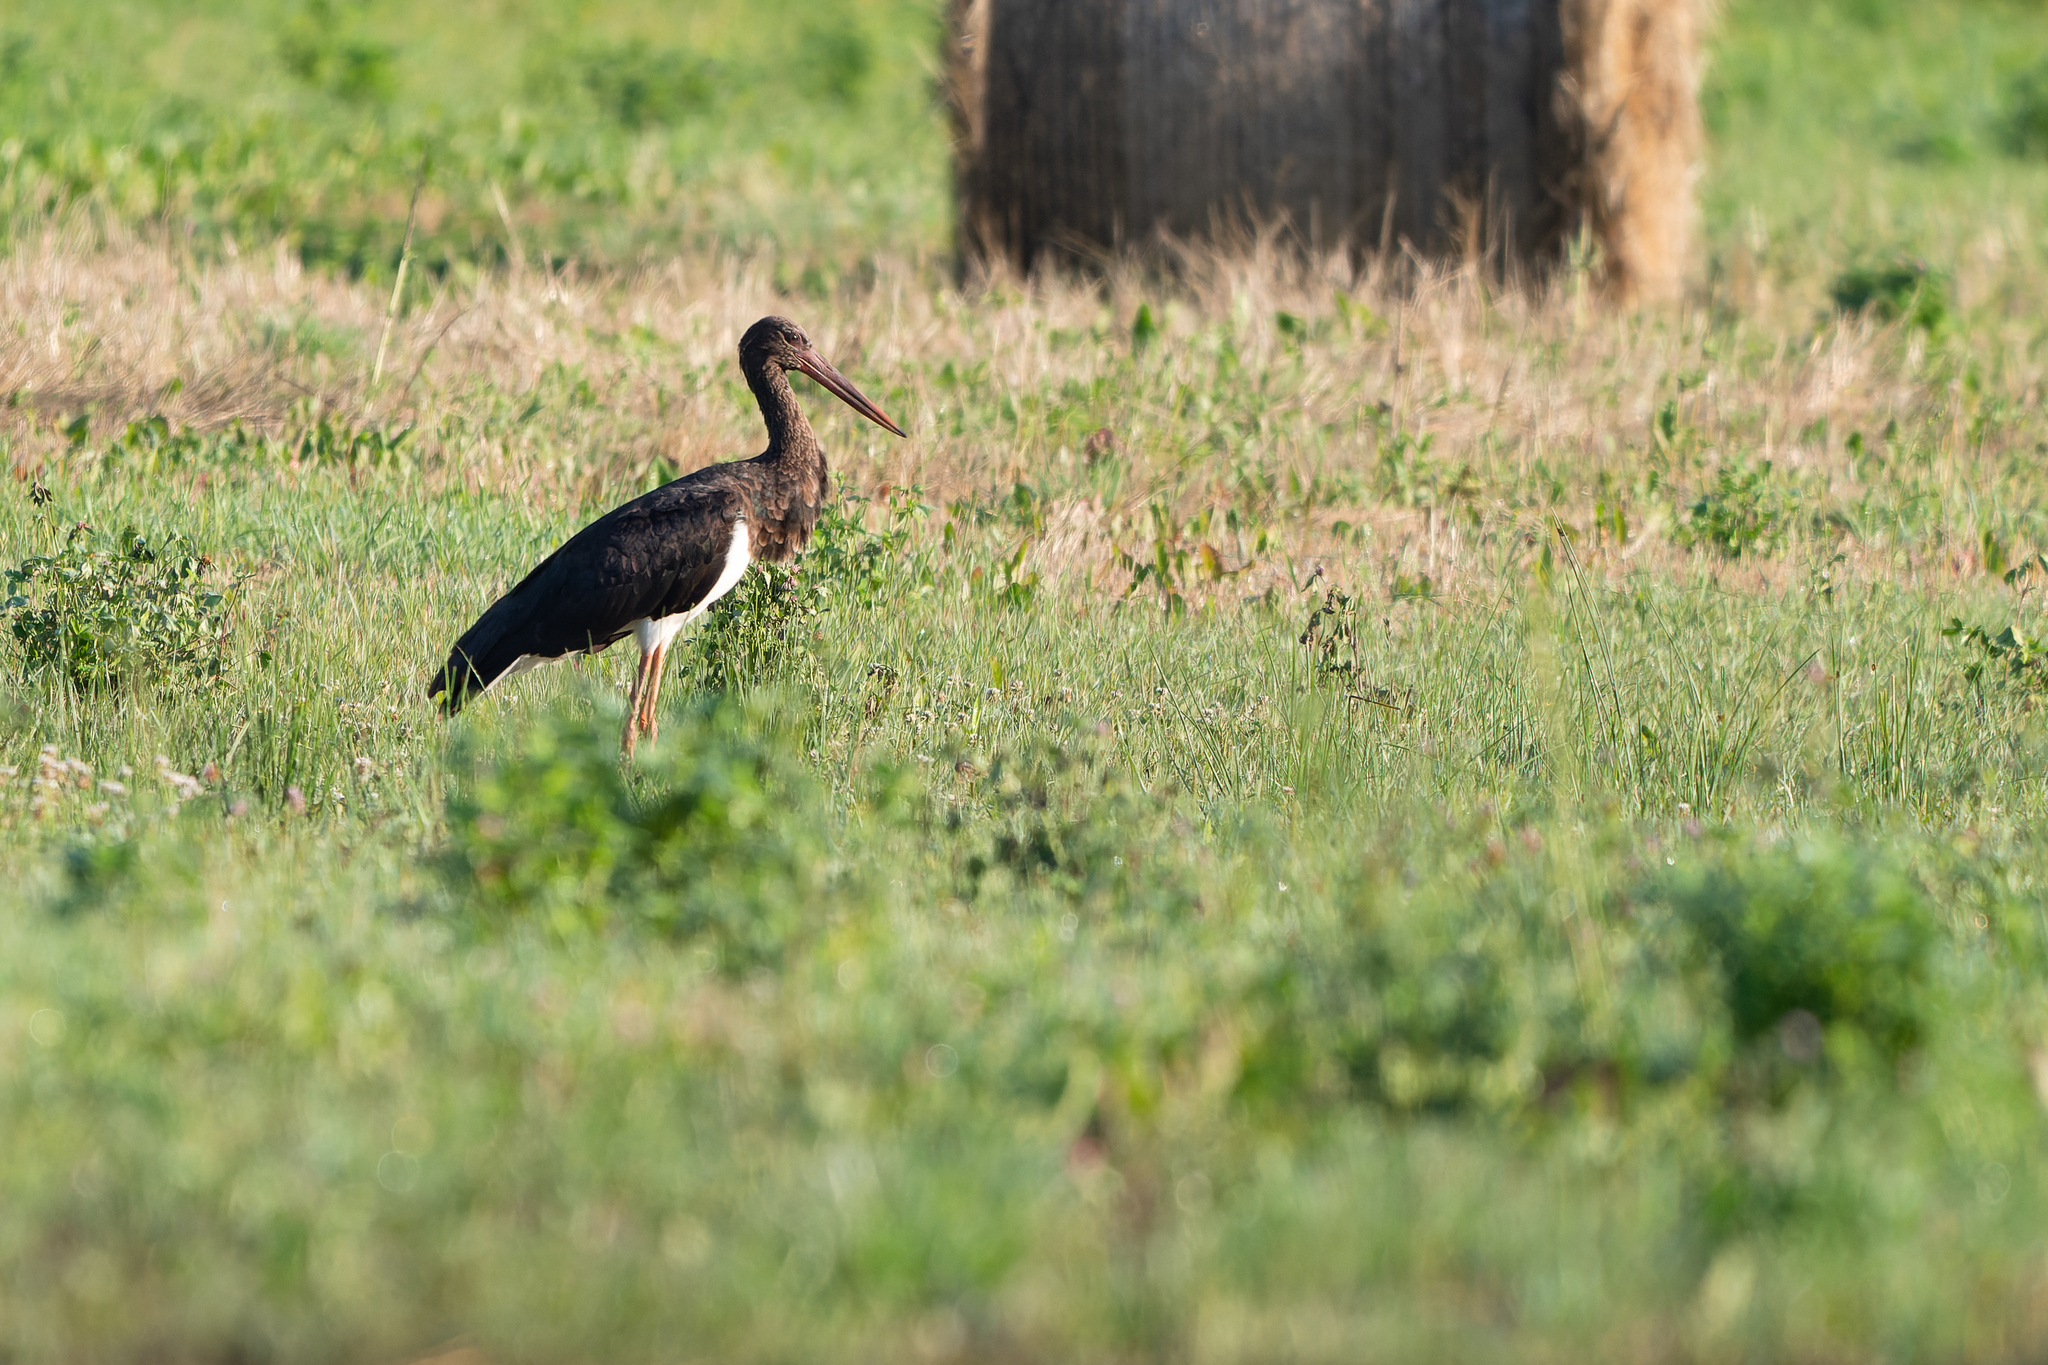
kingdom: Animalia
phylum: Chordata
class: Aves
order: Ciconiiformes
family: Ciconiidae
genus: Ciconia
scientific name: Ciconia nigra
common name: Black stork
